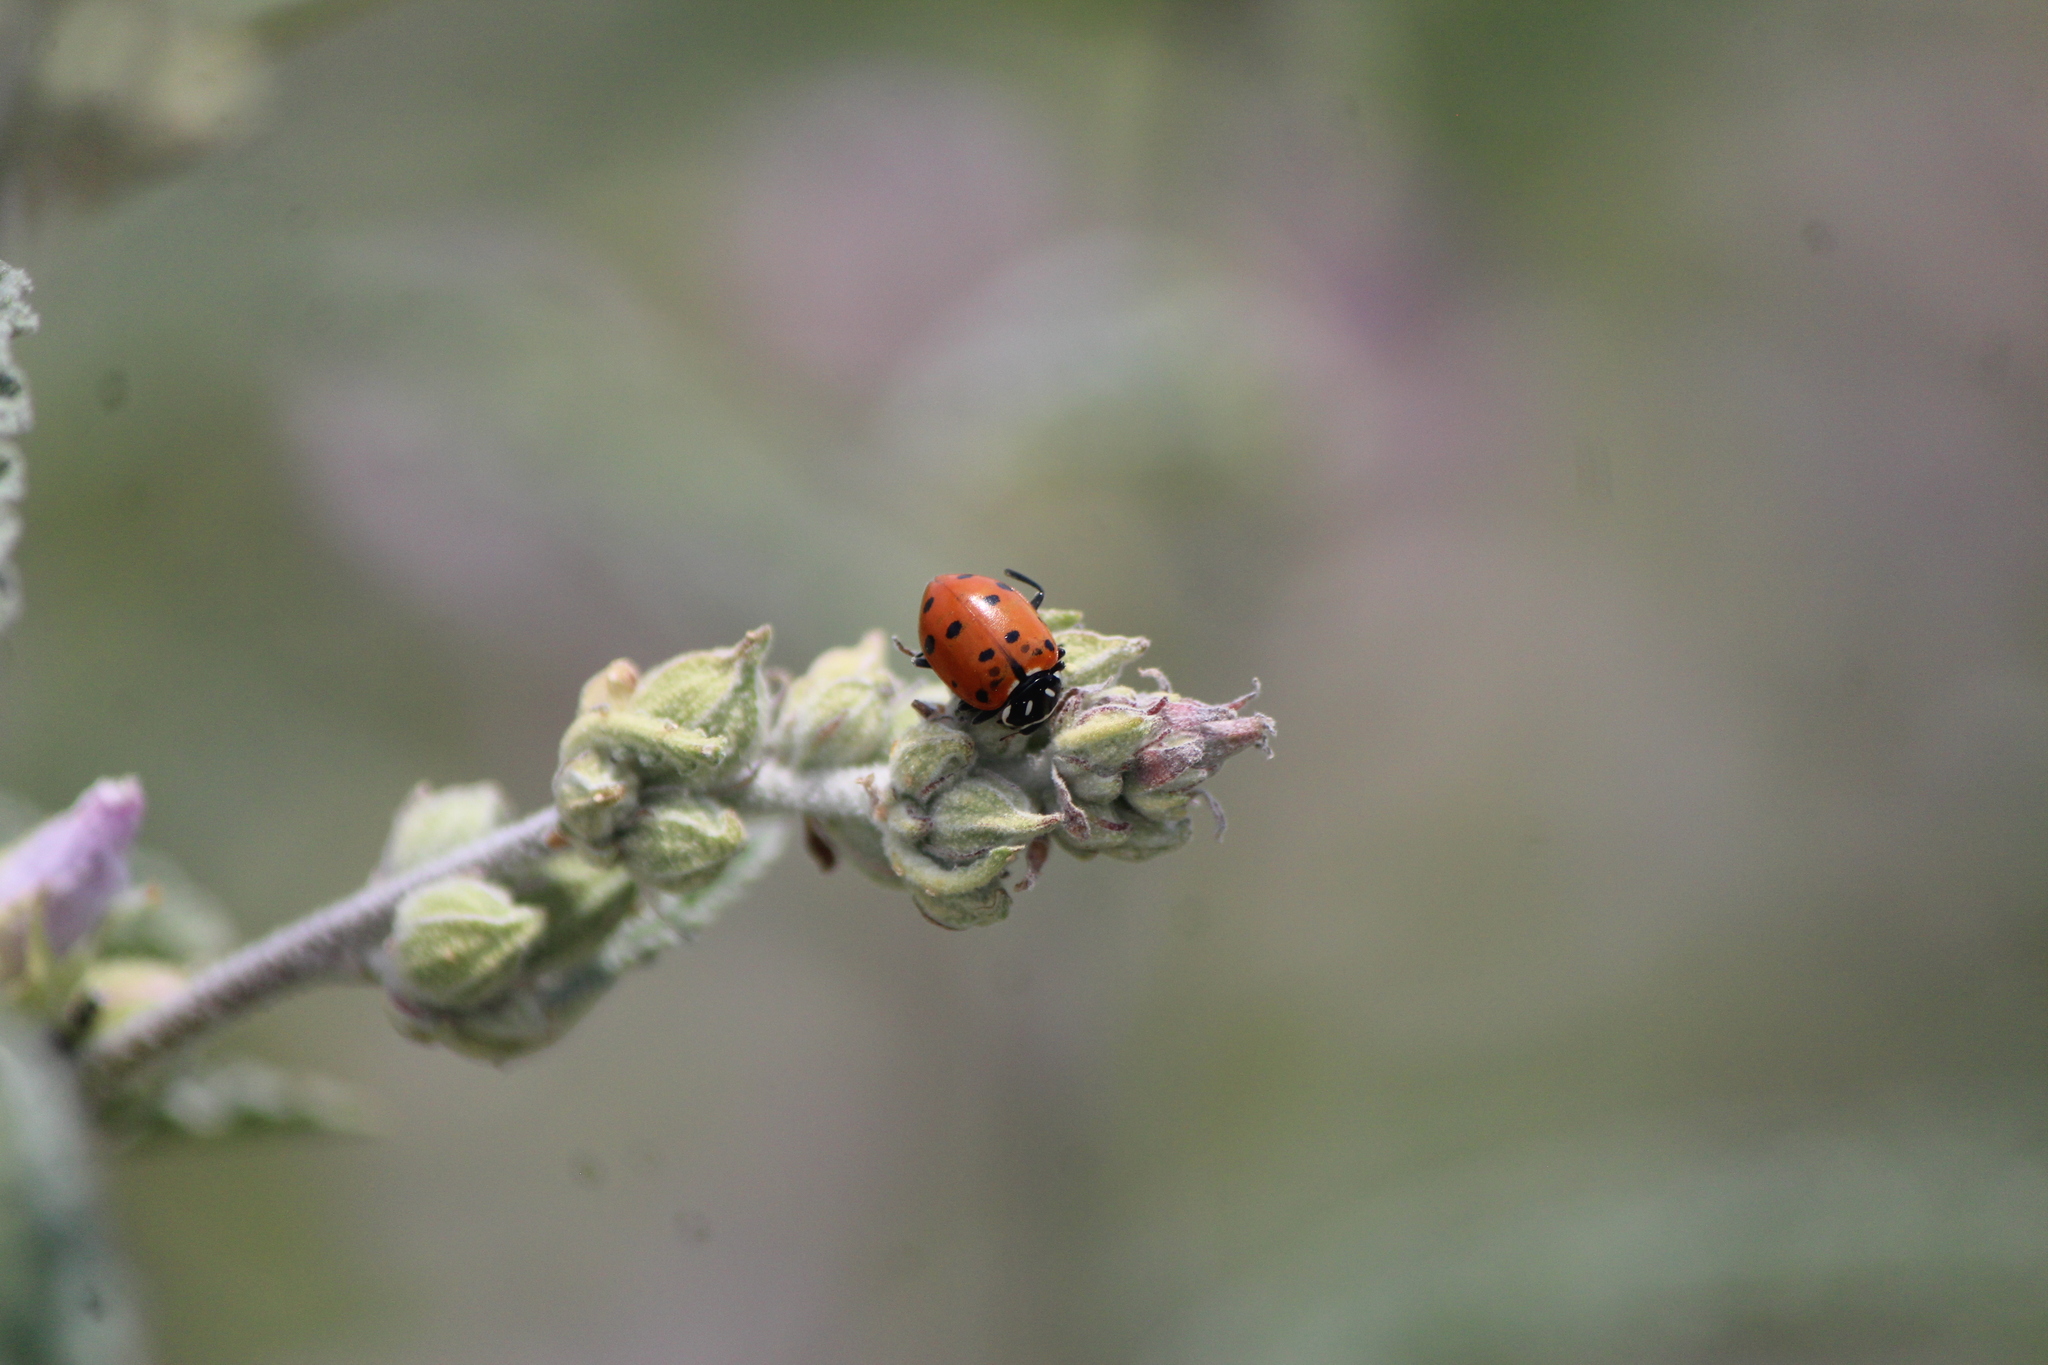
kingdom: Animalia
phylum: Arthropoda
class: Insecta
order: Coleoptera
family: Coccinellidae
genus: Hippodamia
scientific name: Hippodamia convergens
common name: Convergent lady beetle
